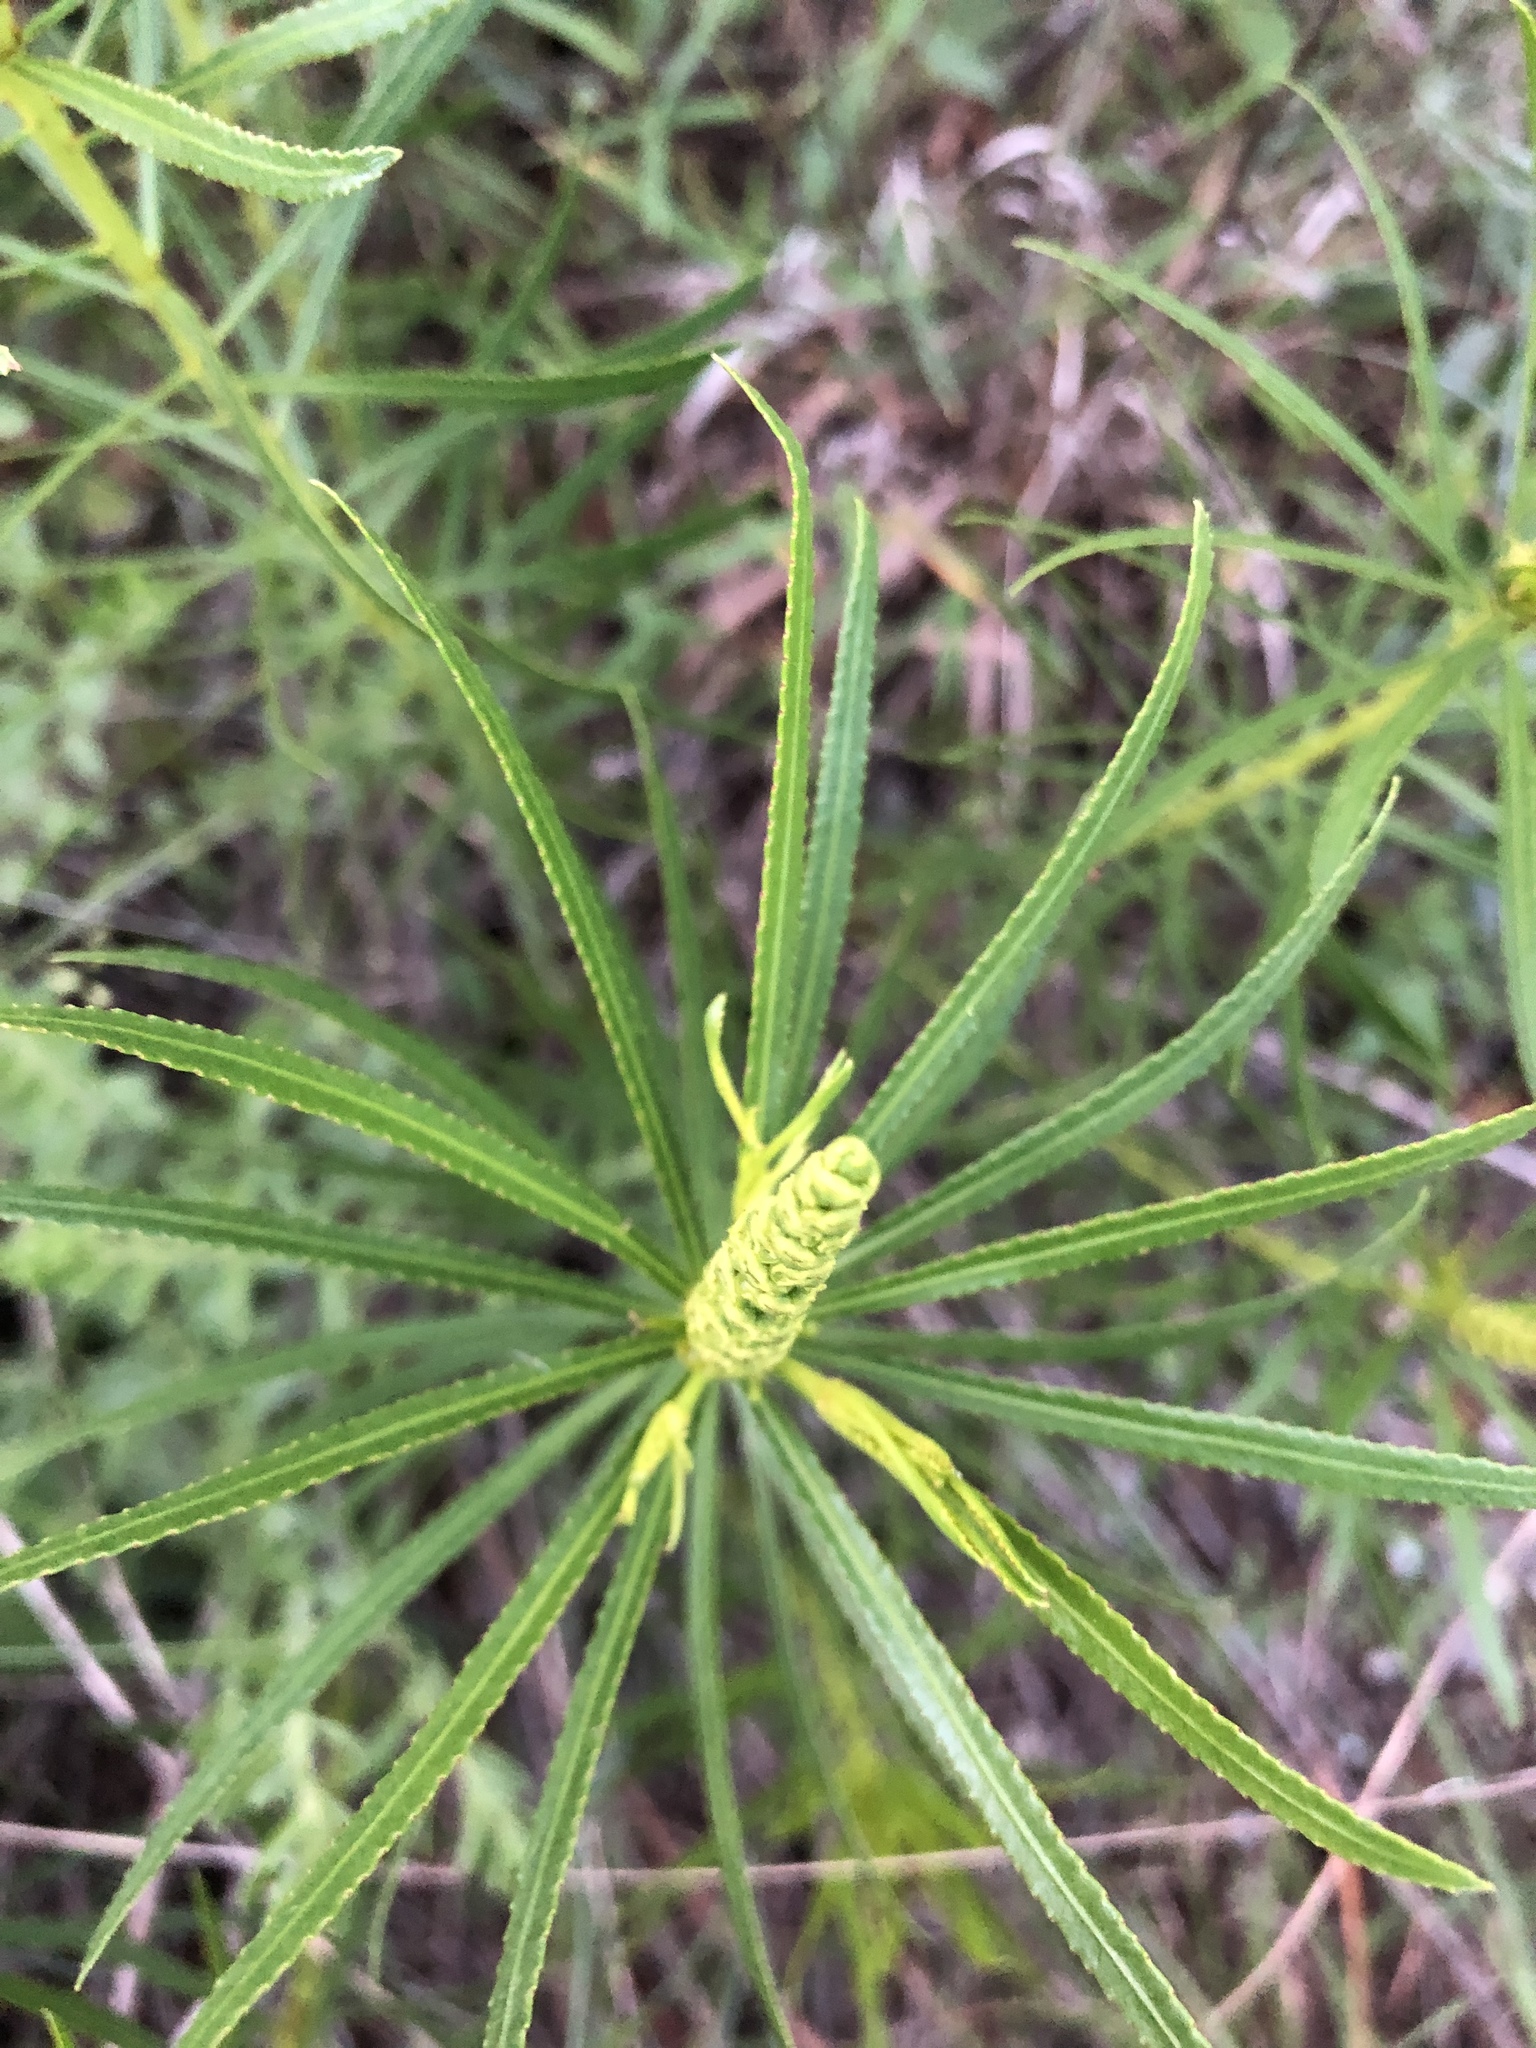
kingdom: Plantae
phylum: Tracheophyta
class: Magnoliopsida
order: Malpighiales
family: Euphorbiaceae
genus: Stillingia
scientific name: Stillingia texana
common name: Texas stillingia
